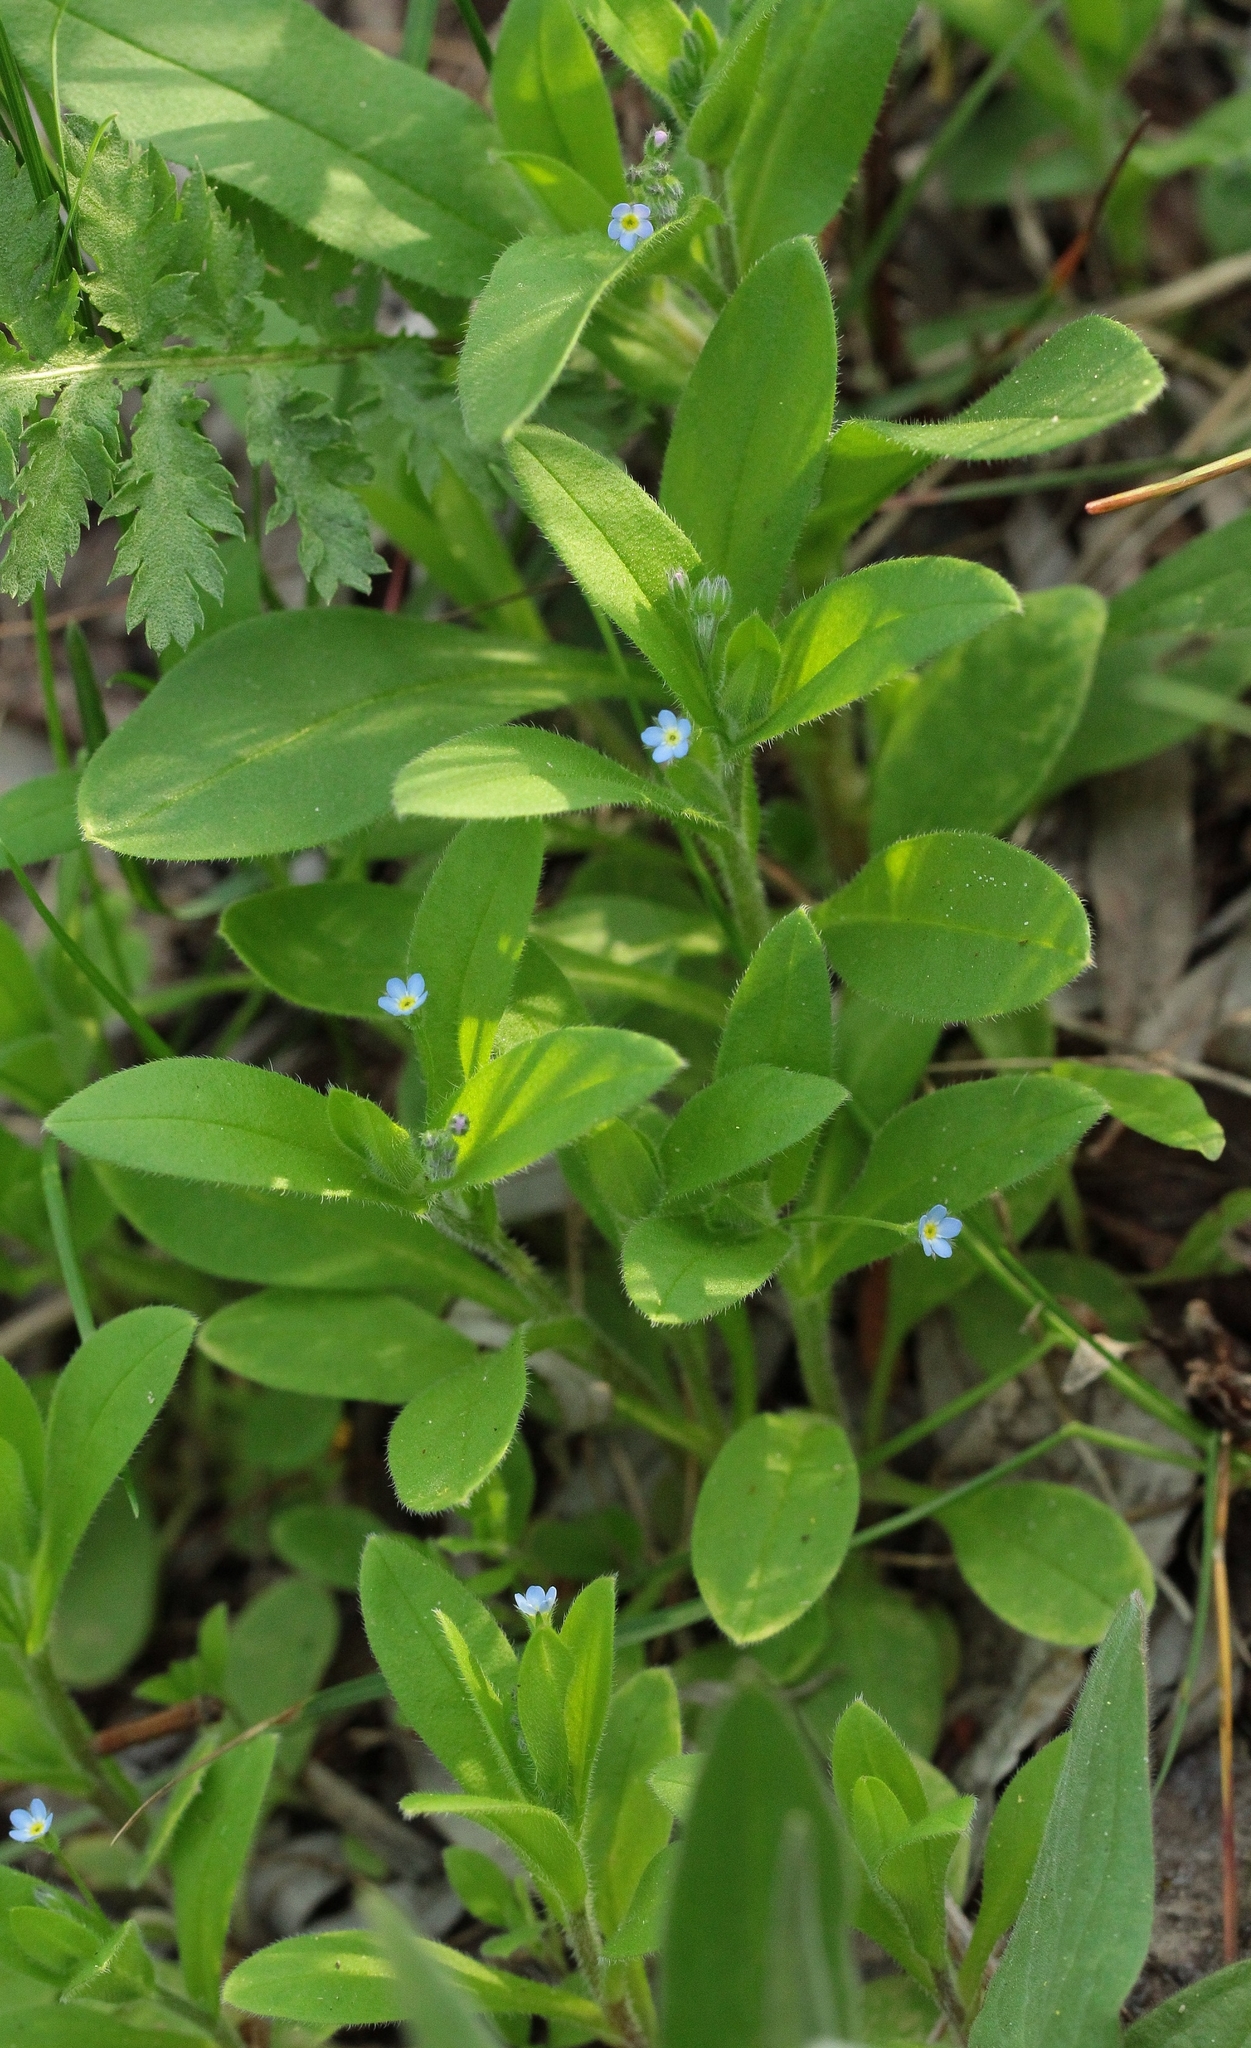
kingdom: Plantae
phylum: Tracheophyta
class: Magnoliopsida
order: Boraginales
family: Boraginaceae
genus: Myosotis
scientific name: Myosotis sparsiflora
